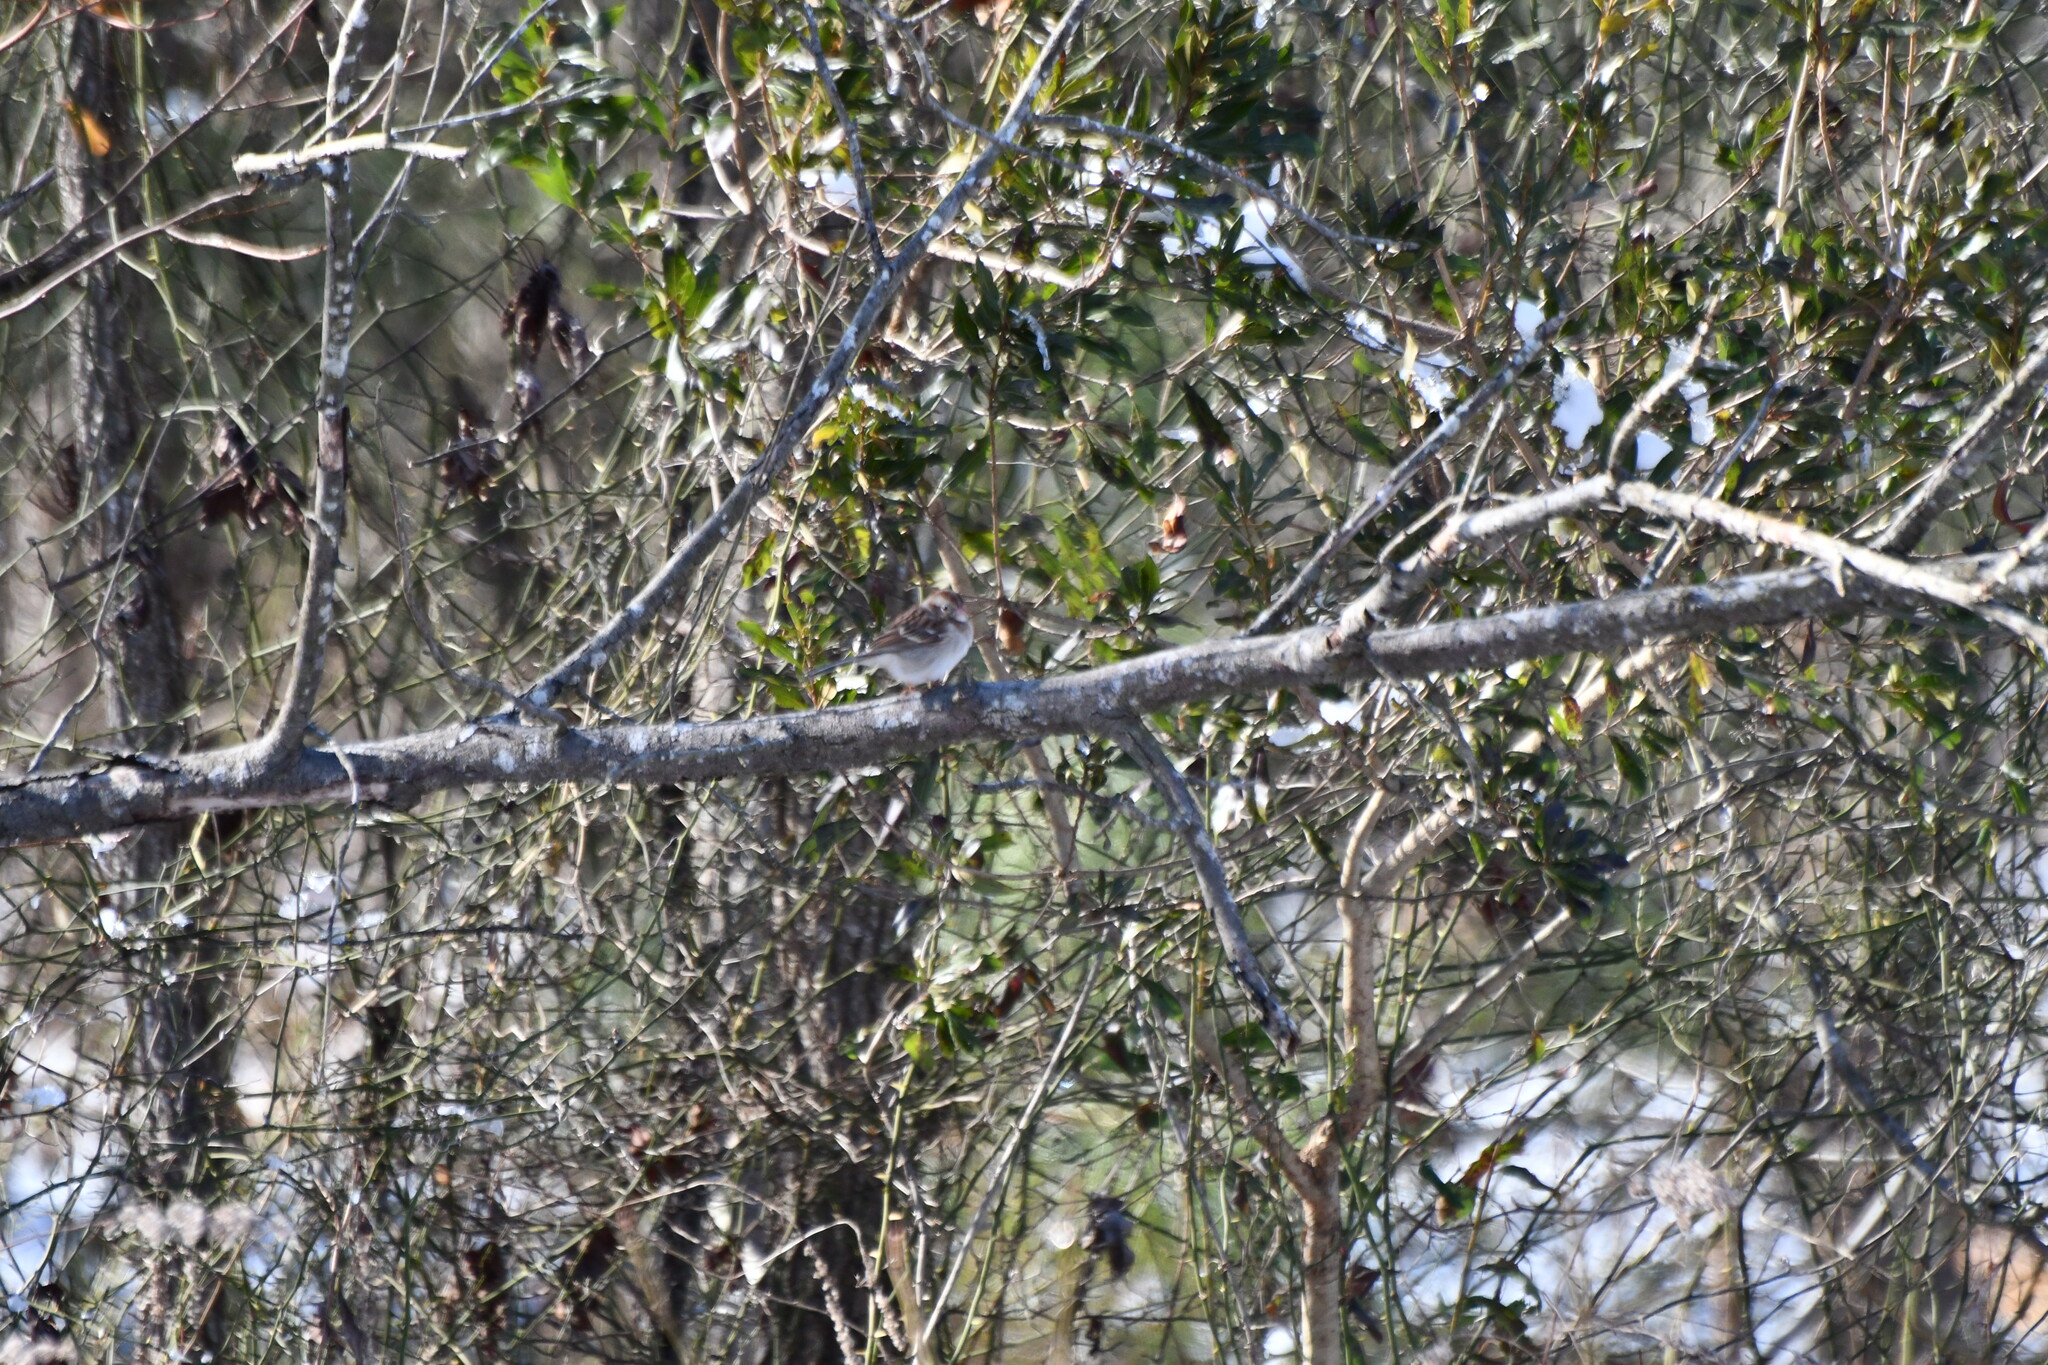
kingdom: Animalia
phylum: Chordata
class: Aves
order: Passeriformes
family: Passerellidae
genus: Spizella
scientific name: Spizella pusilla
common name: Field sparrow
